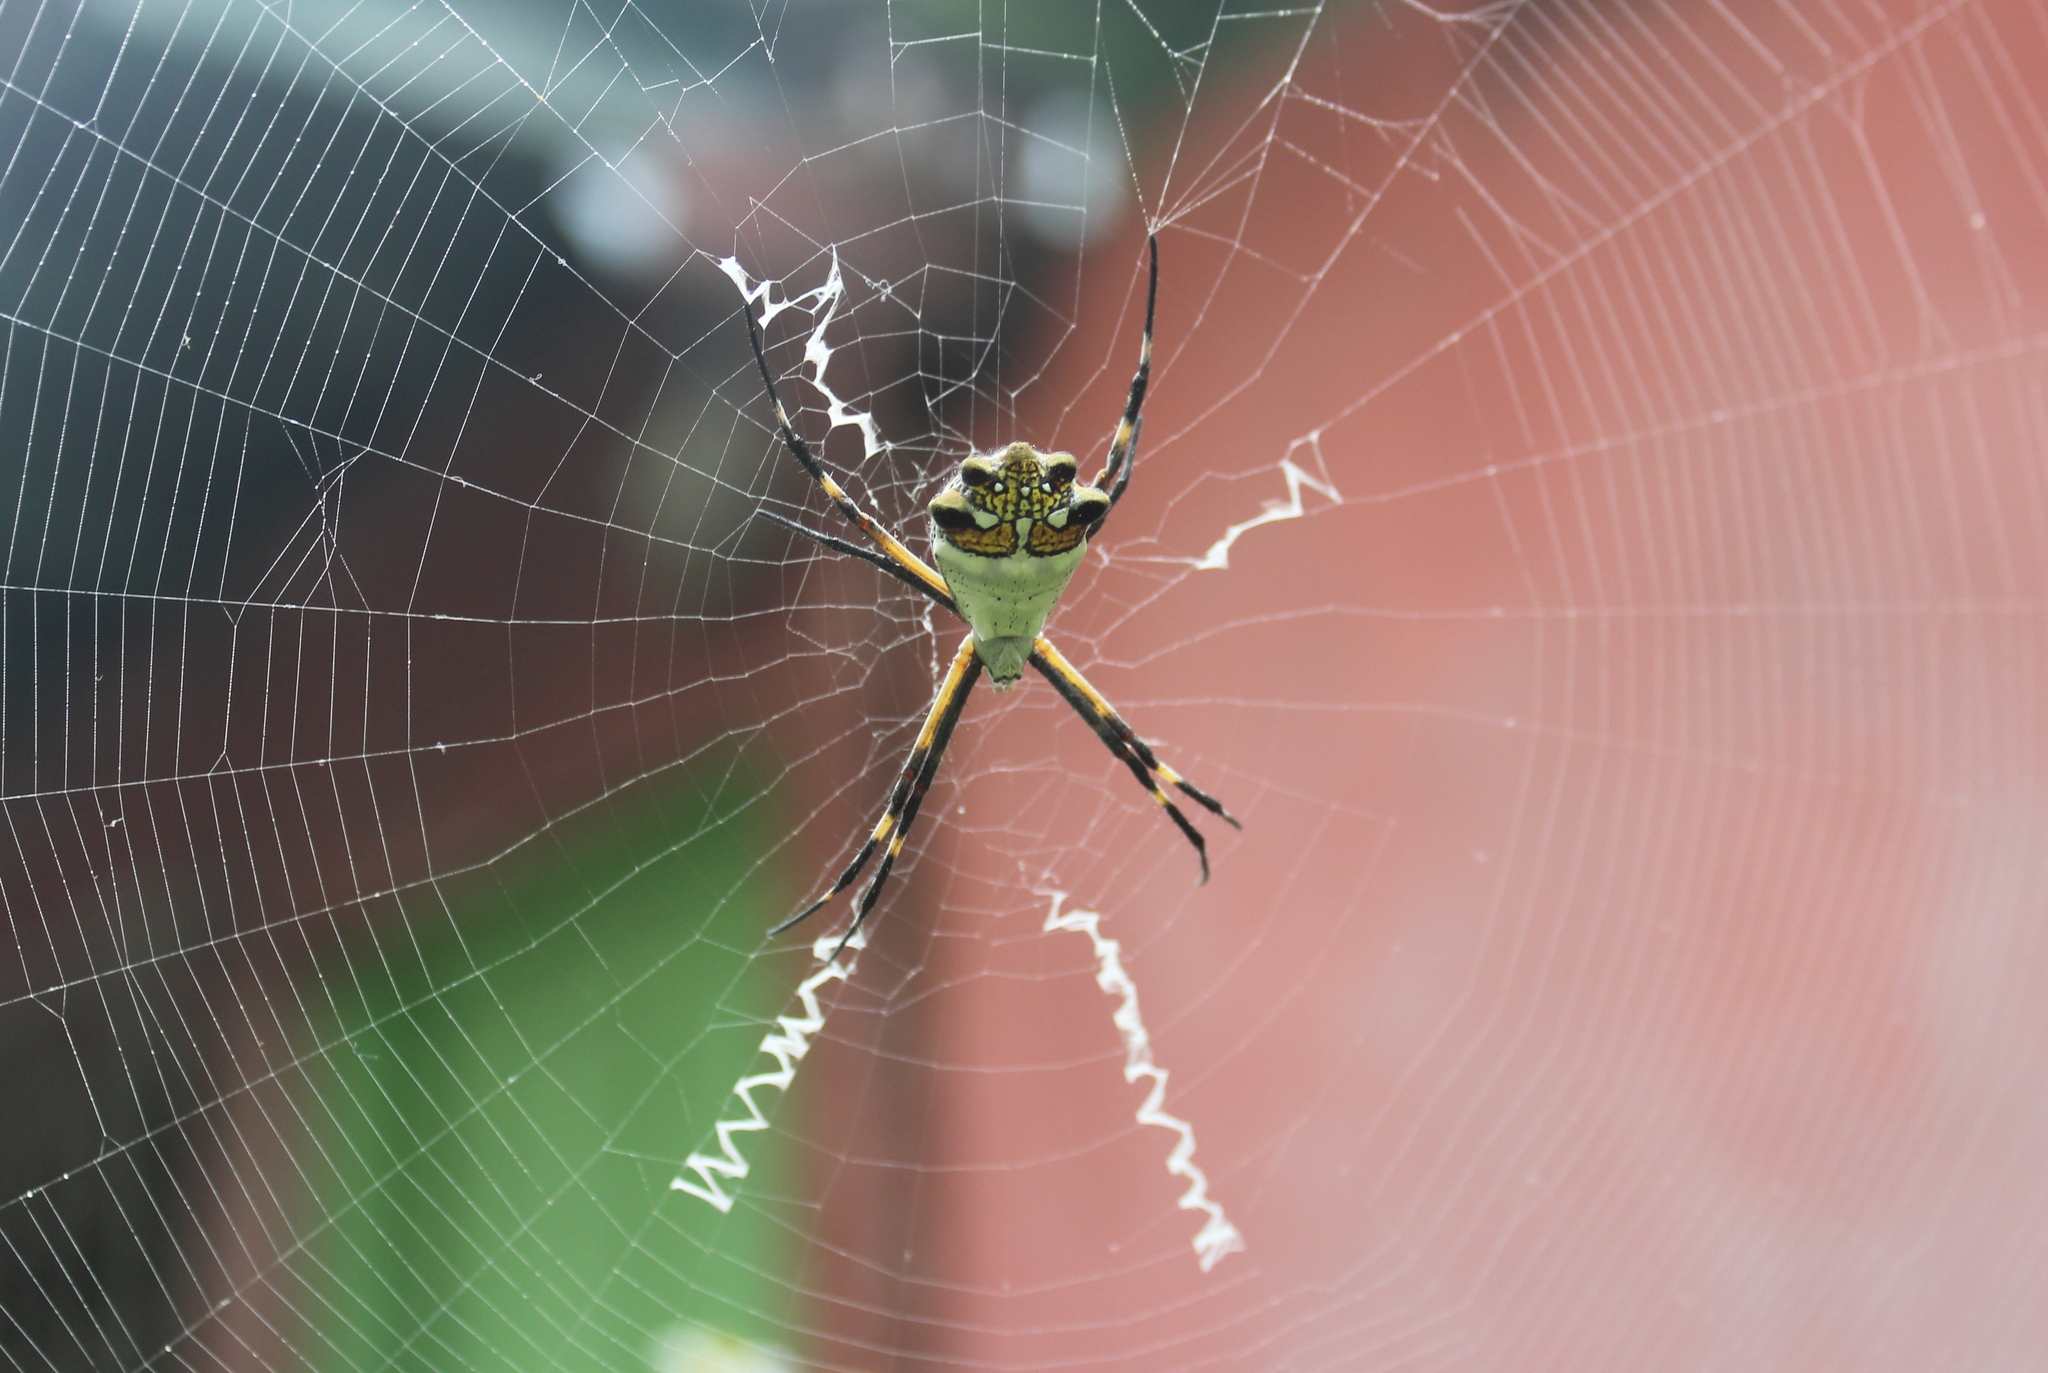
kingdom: Animalia
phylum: Arthropoda
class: Arachnida
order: Araneae
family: Araneidae
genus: Argiope
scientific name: Argiope argentata
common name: Orb weavers
